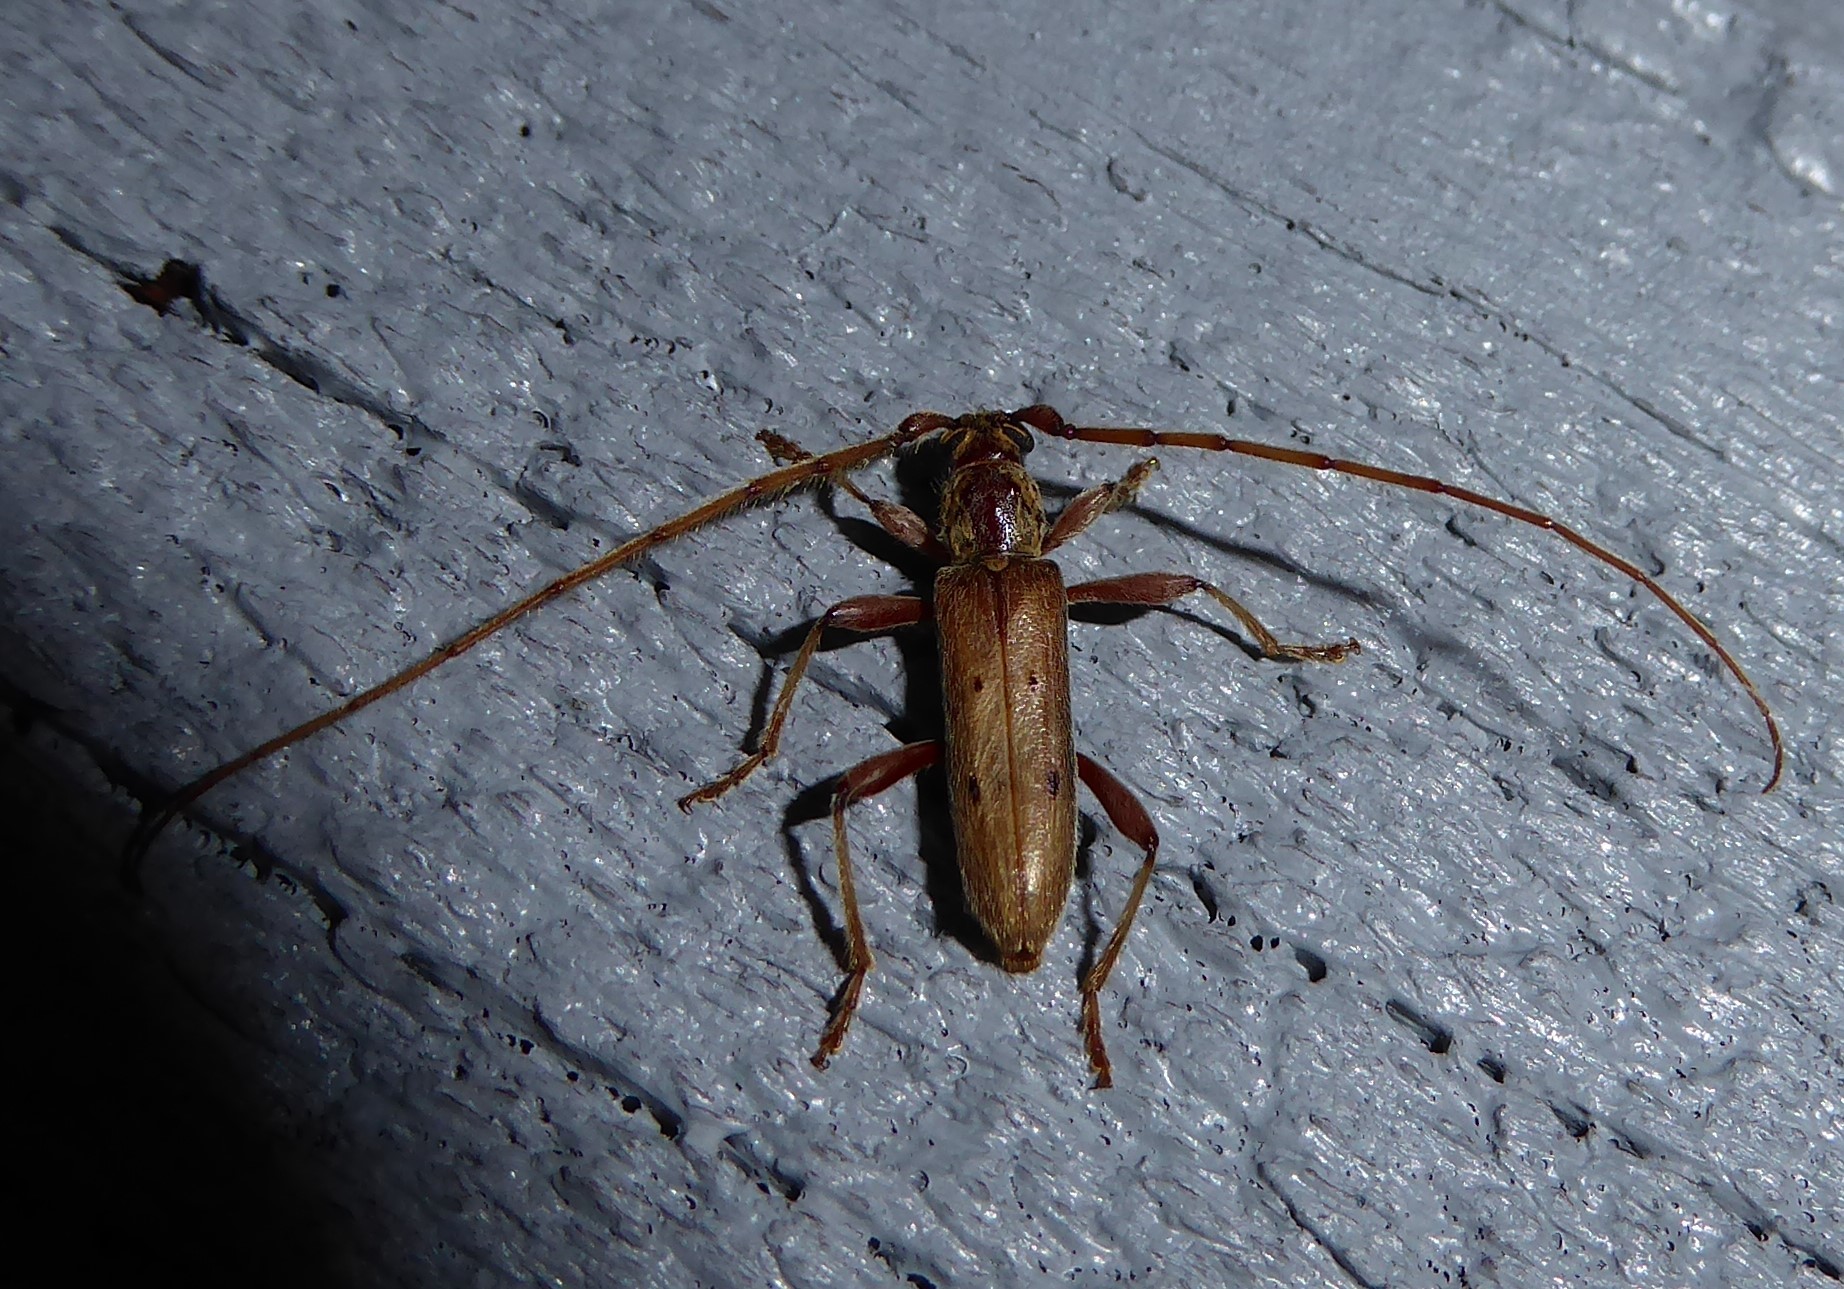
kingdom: Animalia
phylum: Arthropoda
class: Insecta
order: Coleoptera
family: Cerambycidae
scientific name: Cerambycidae
